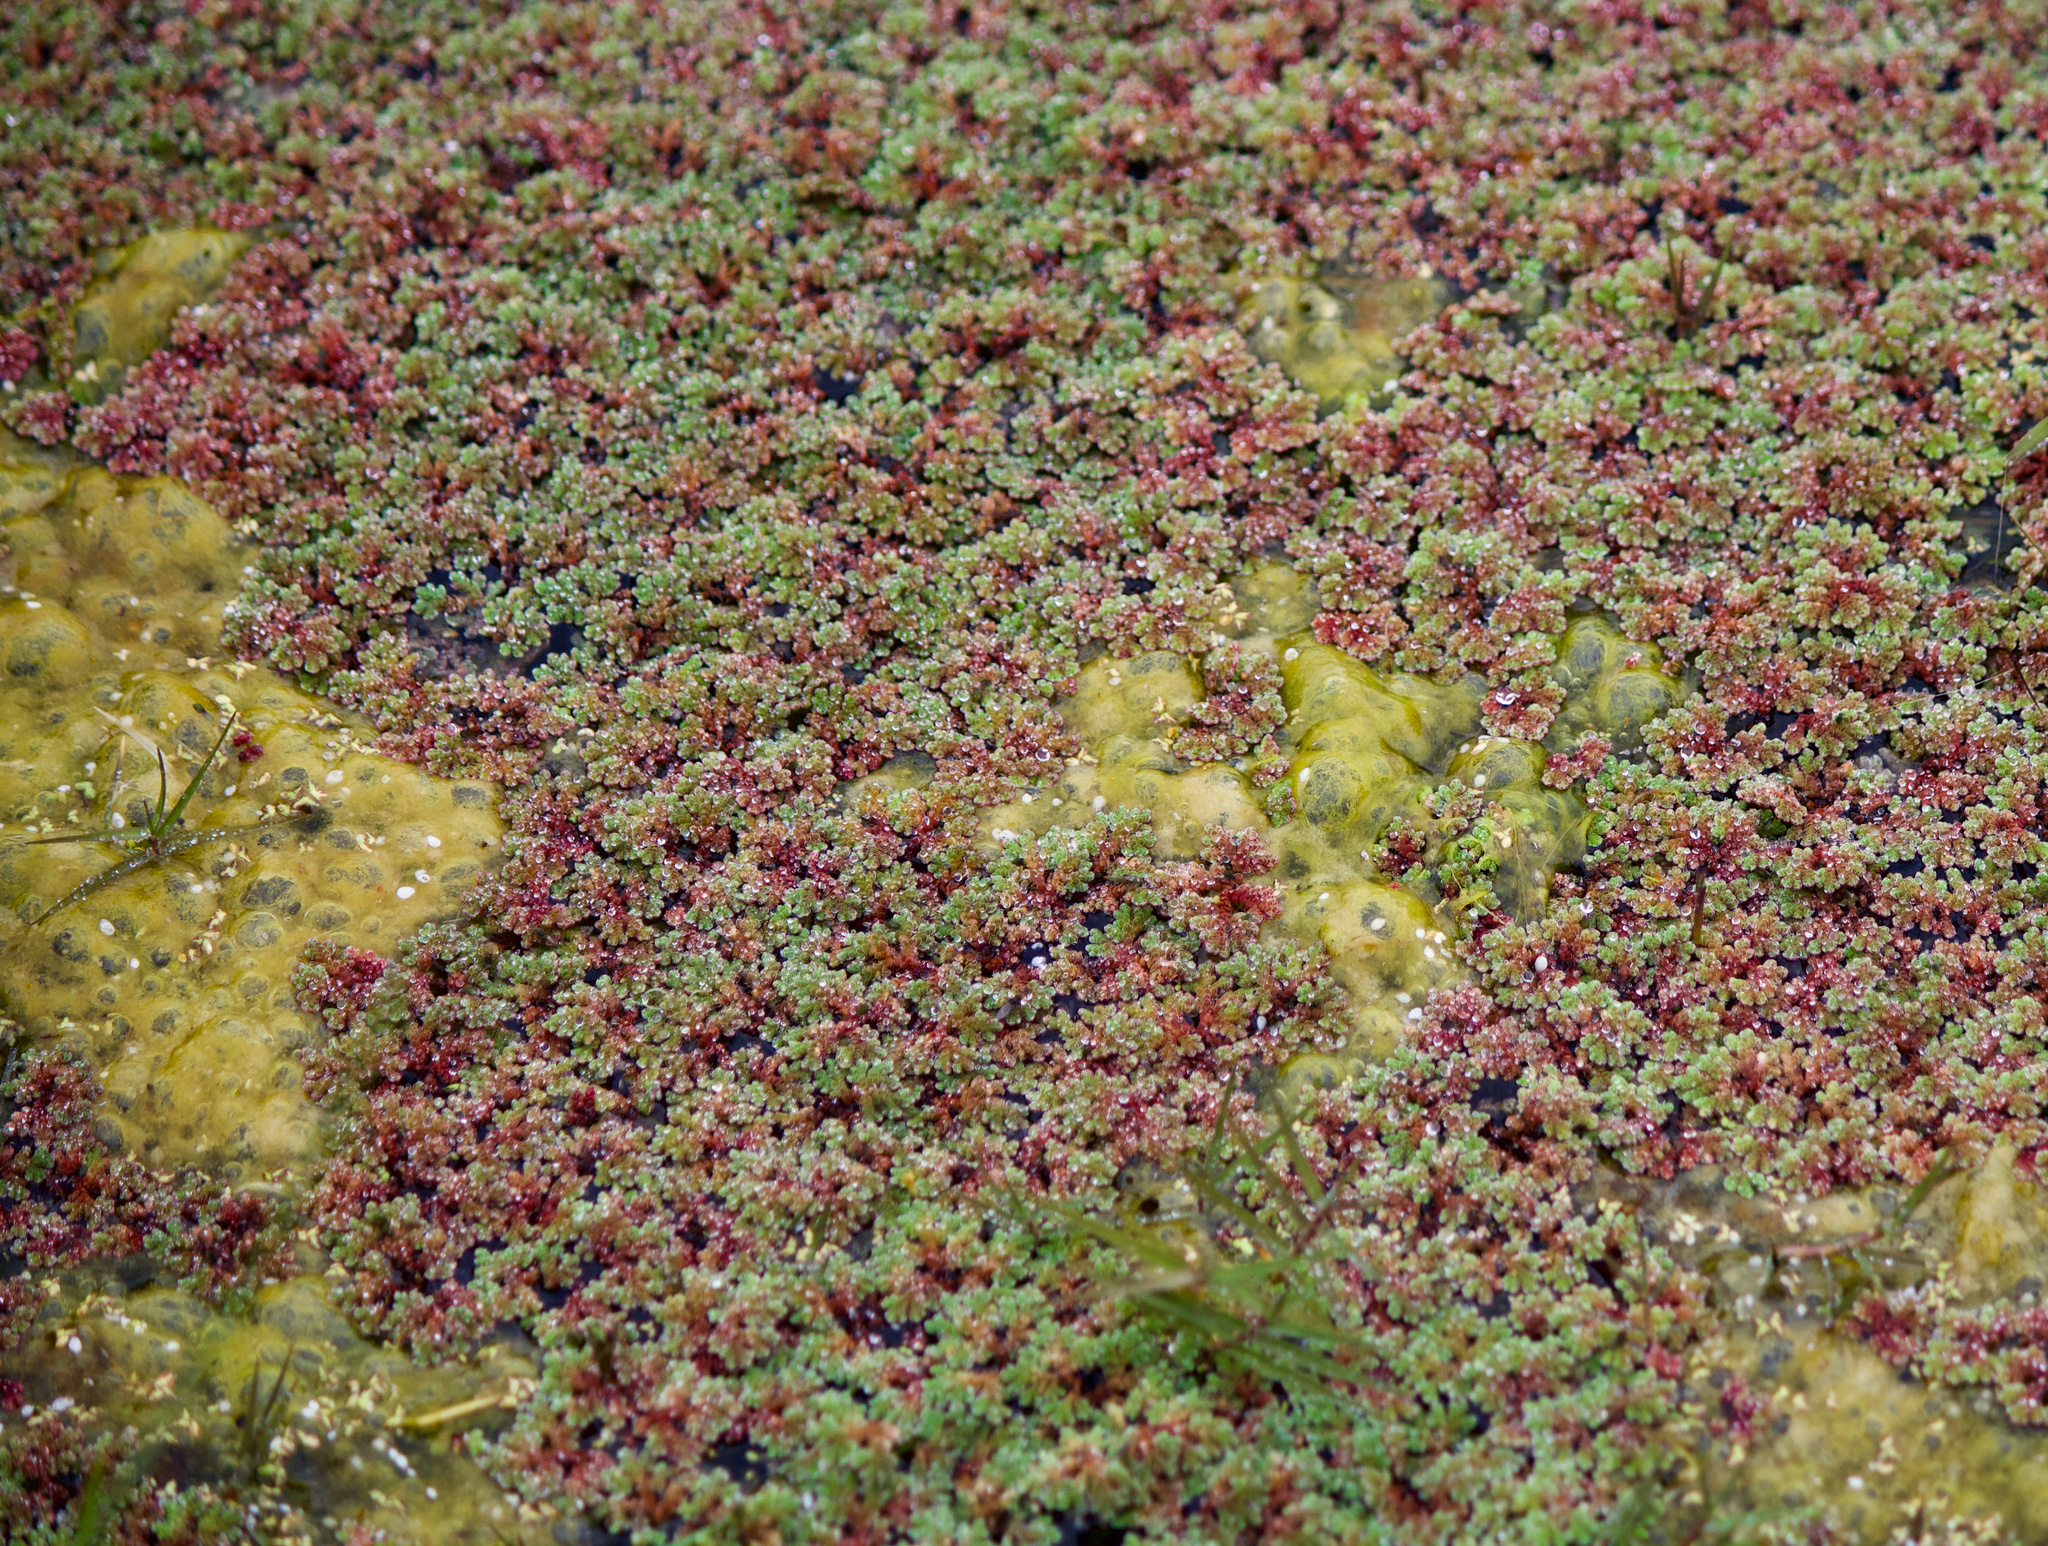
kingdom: Plantae
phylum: Tracheophyta
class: Polypodiopsida
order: Salviniales
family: Salviniaceae
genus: Azolla
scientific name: Azolla filiculoides
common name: Water fern
